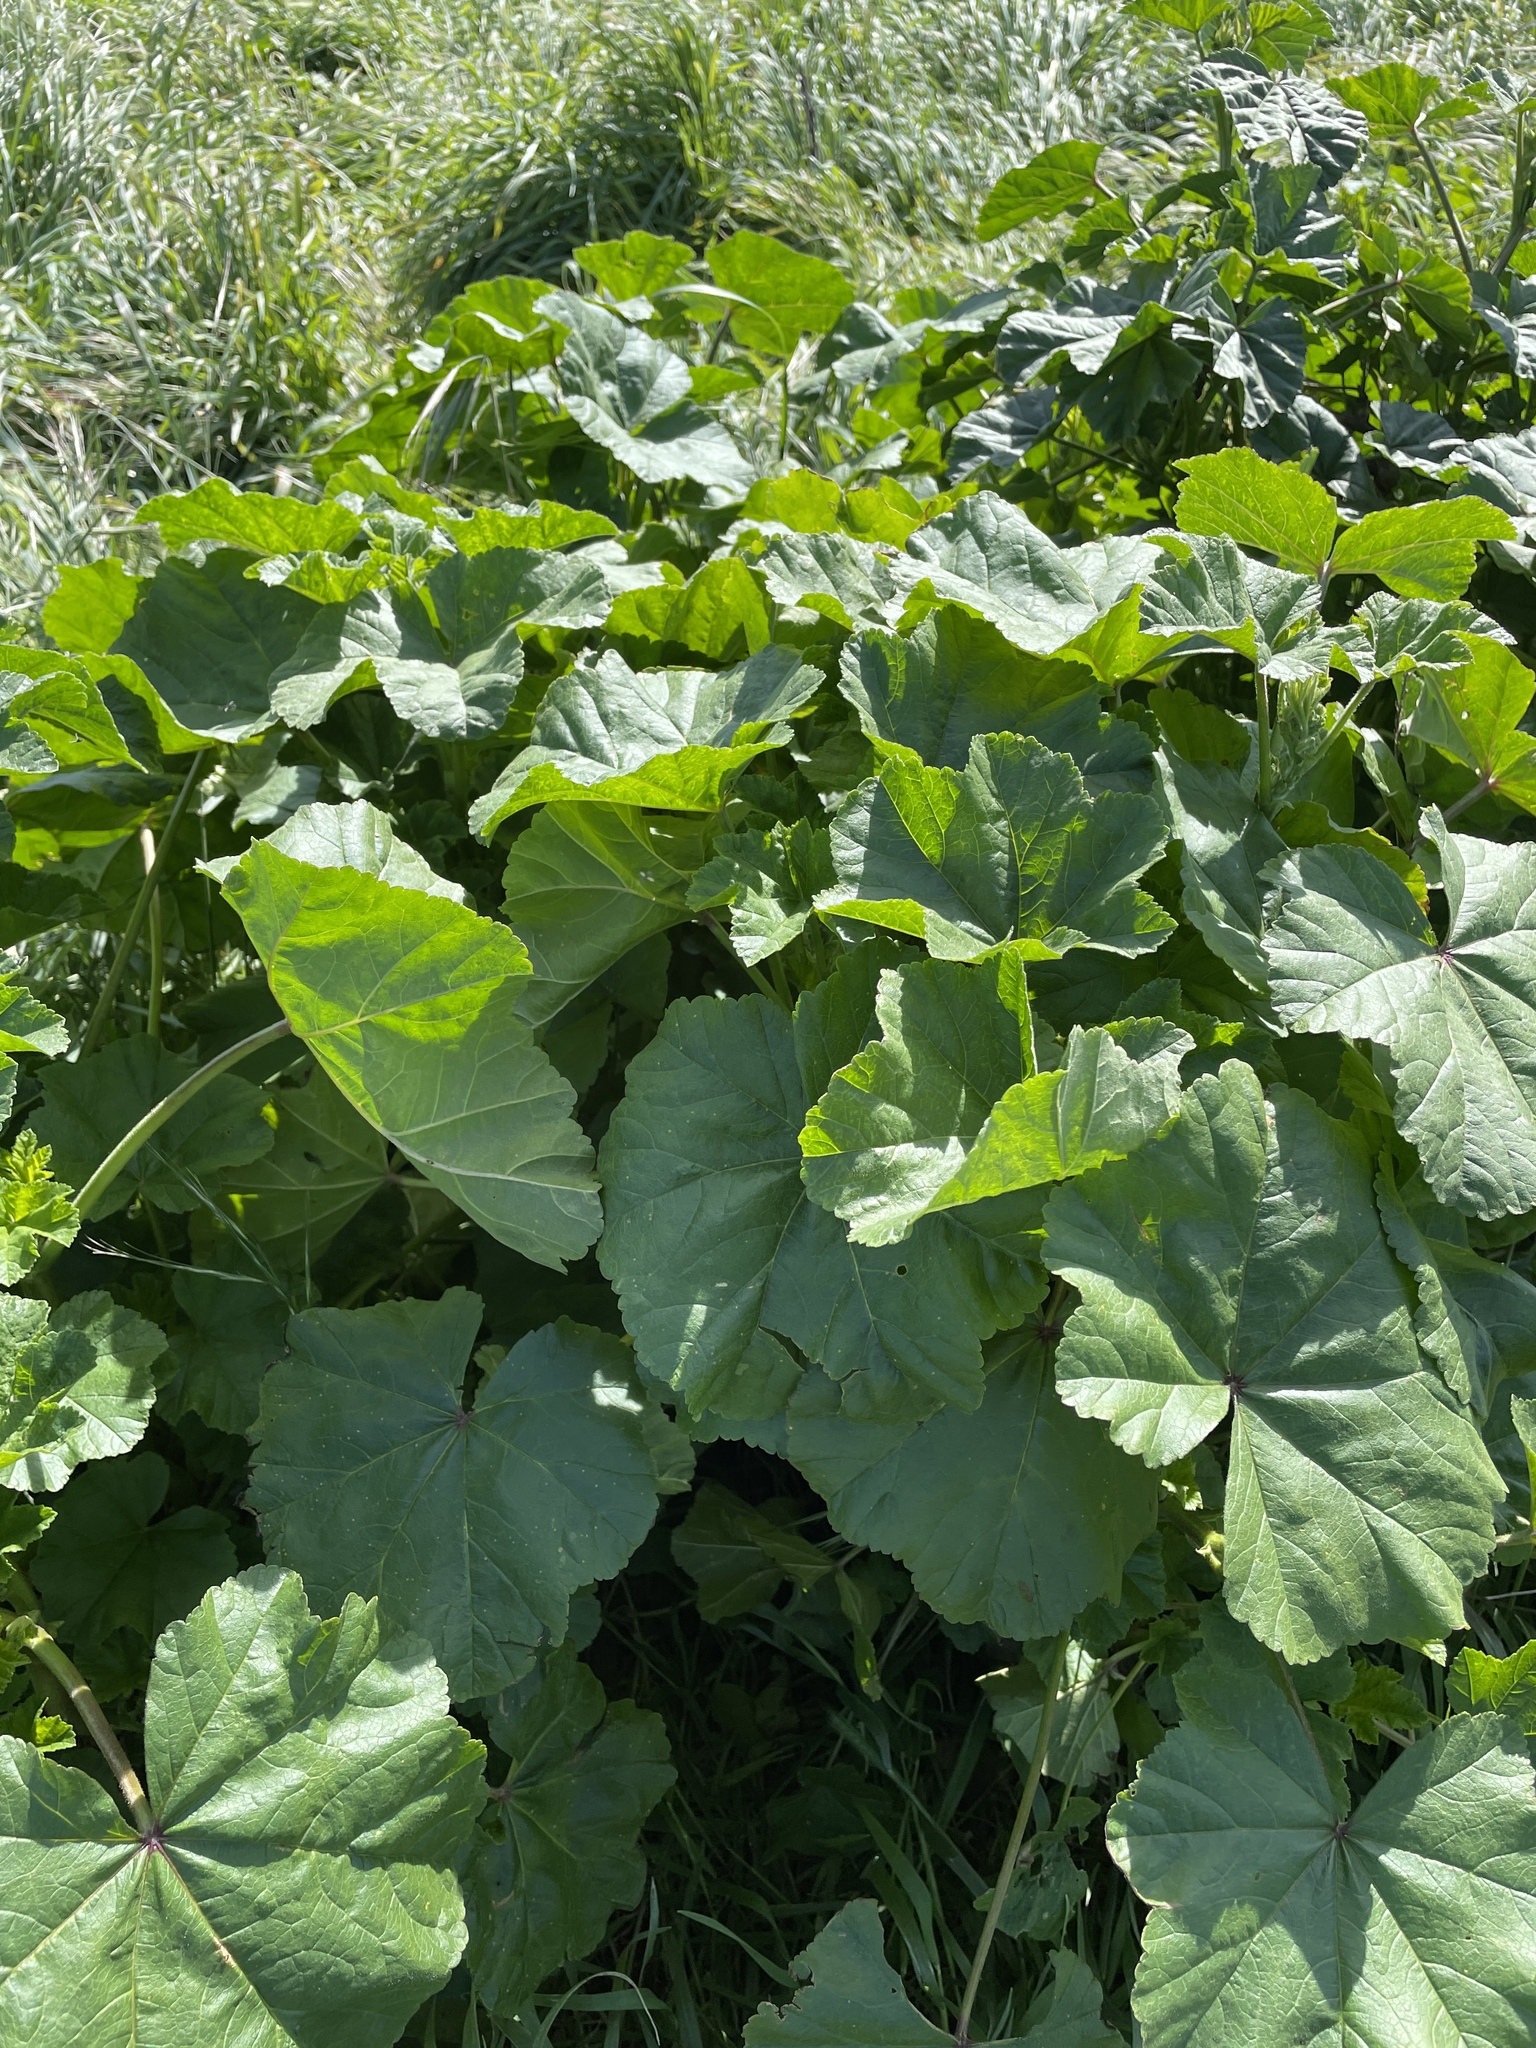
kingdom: Plantae
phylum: Tracheophyta
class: Magnoliopsida
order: Malvales
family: Malvaceae
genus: Malva
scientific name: Malva
